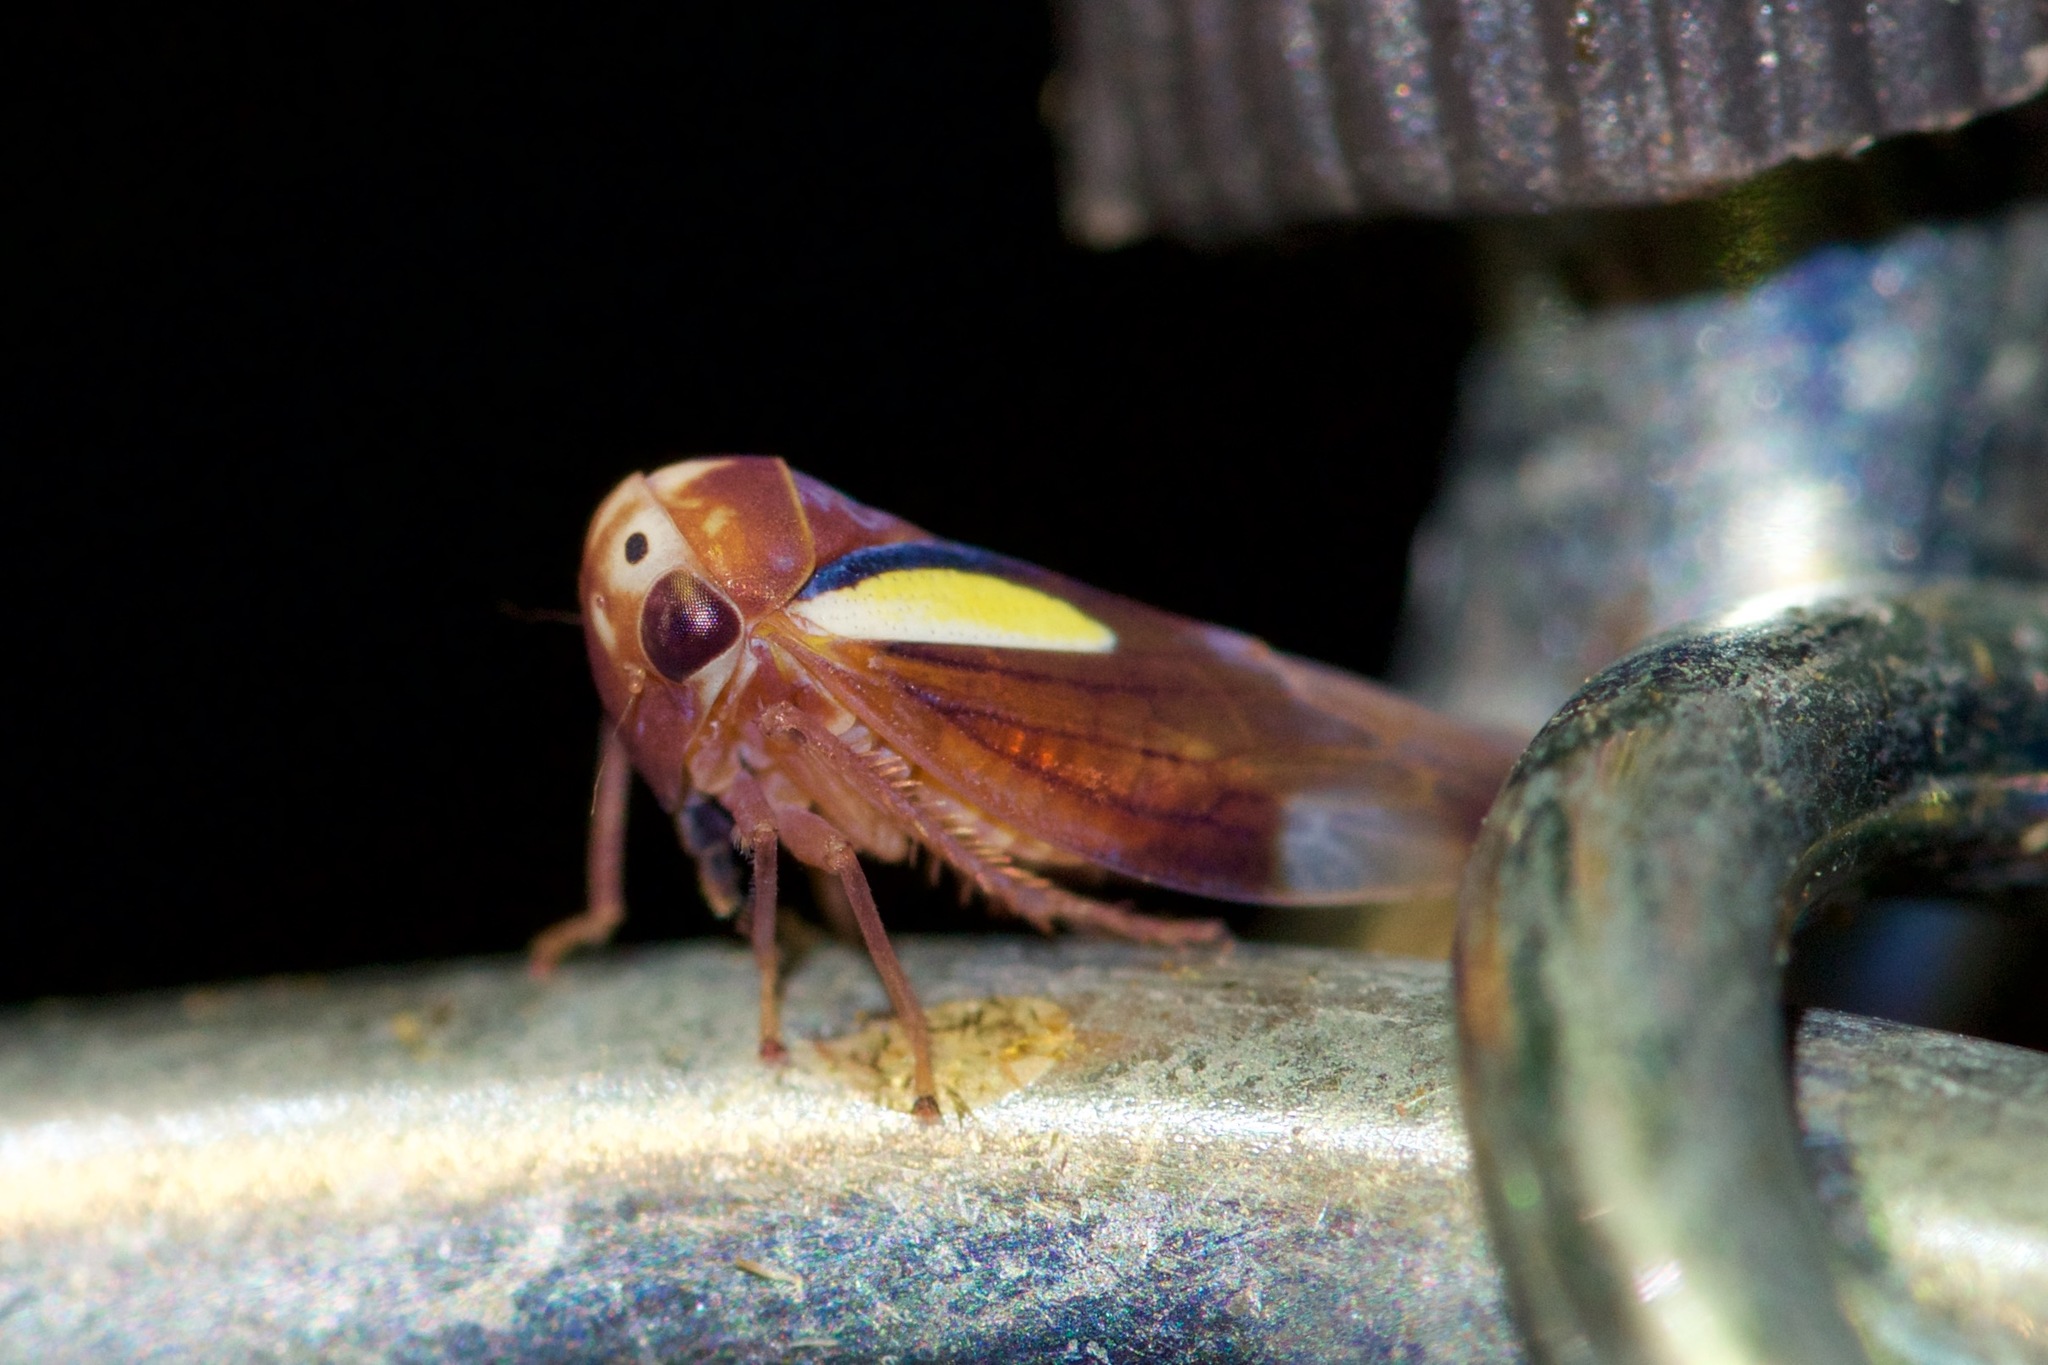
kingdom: Animalia
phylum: Arthropoda
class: Insecta
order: Hemiptera
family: Cicadellidae
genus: Balcanocerus
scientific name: Balcanocerus provancheri
